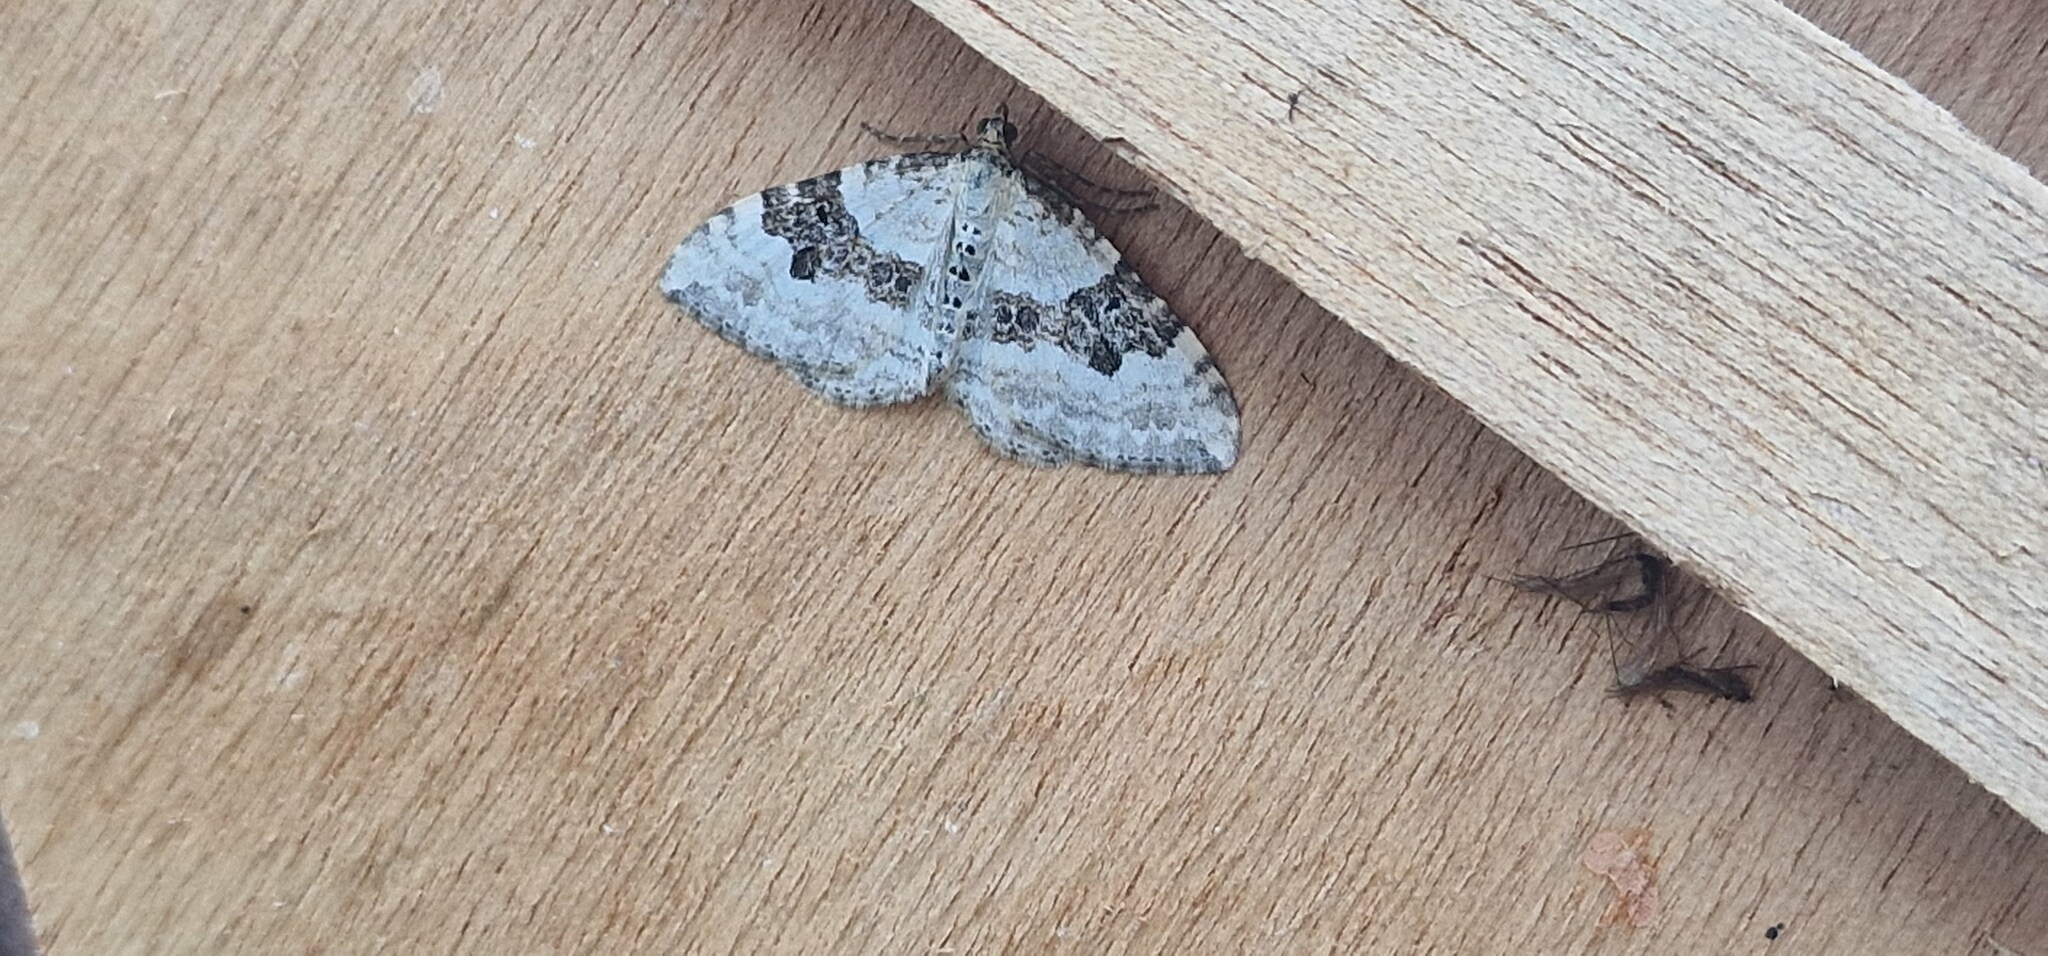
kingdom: Animalia
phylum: Arthropoda
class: Insecta
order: Lepidoptera
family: Geometridae
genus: Xanthorhoe
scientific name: Xanthorhoe montanata
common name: Silver-ground carpet
